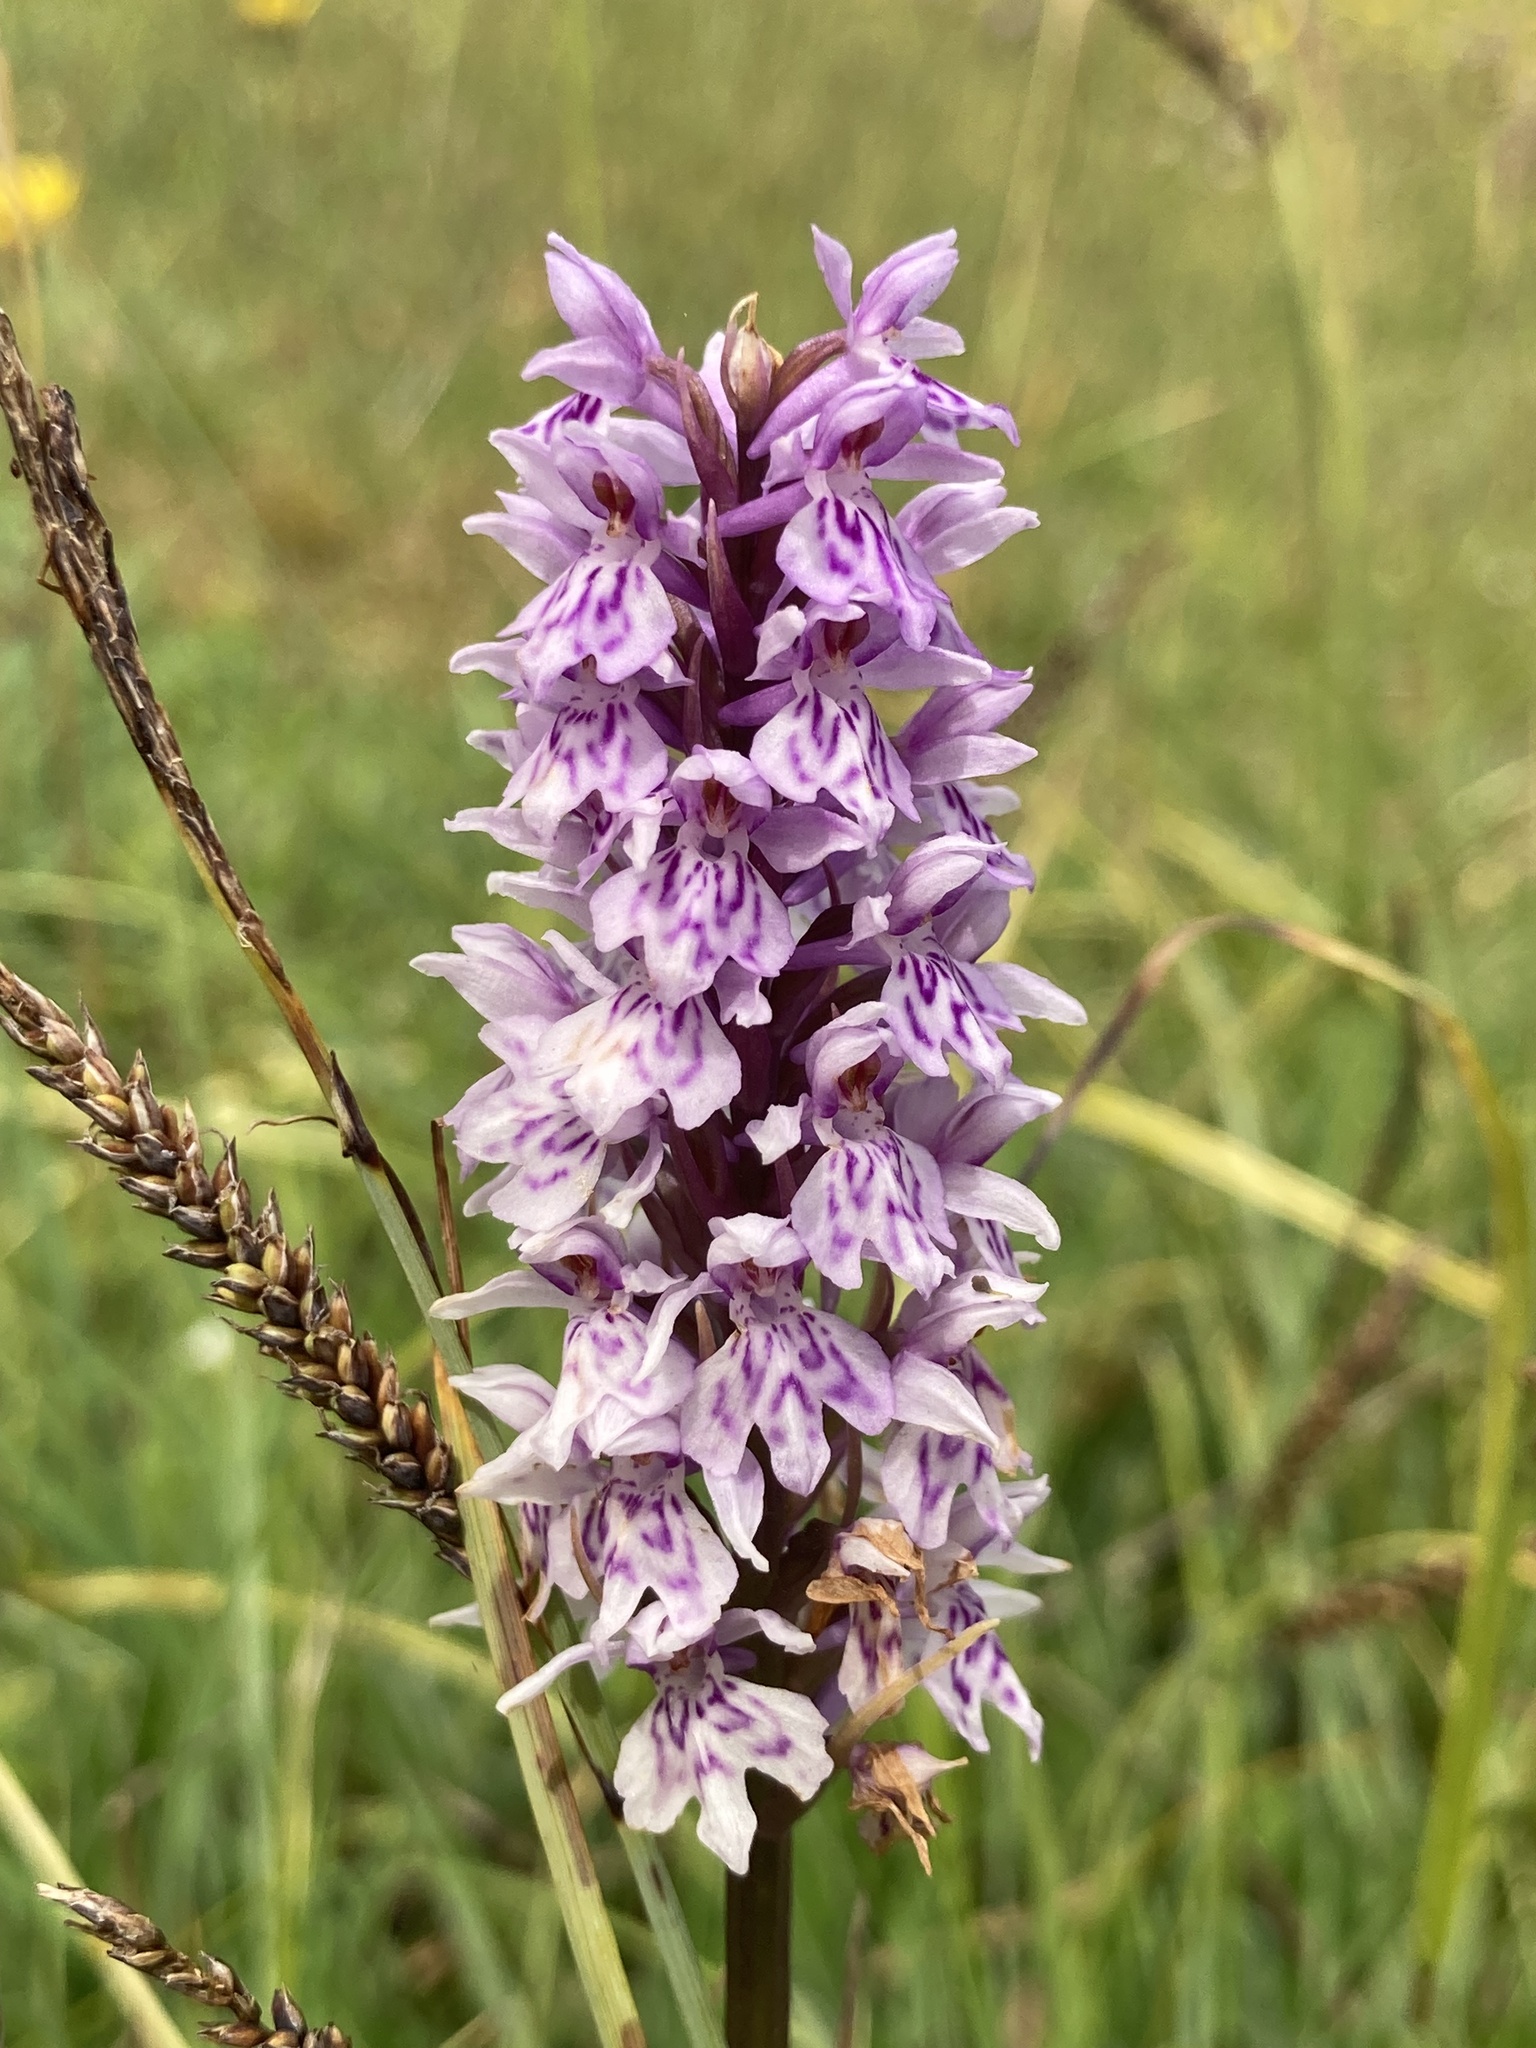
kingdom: Plantae
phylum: Tracheophyta
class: Liliopsida
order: Asparagales
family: Orchidaceae
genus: Dactylorhiza
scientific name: Dactylorhiza maculata
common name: Heath spotted-orchid
